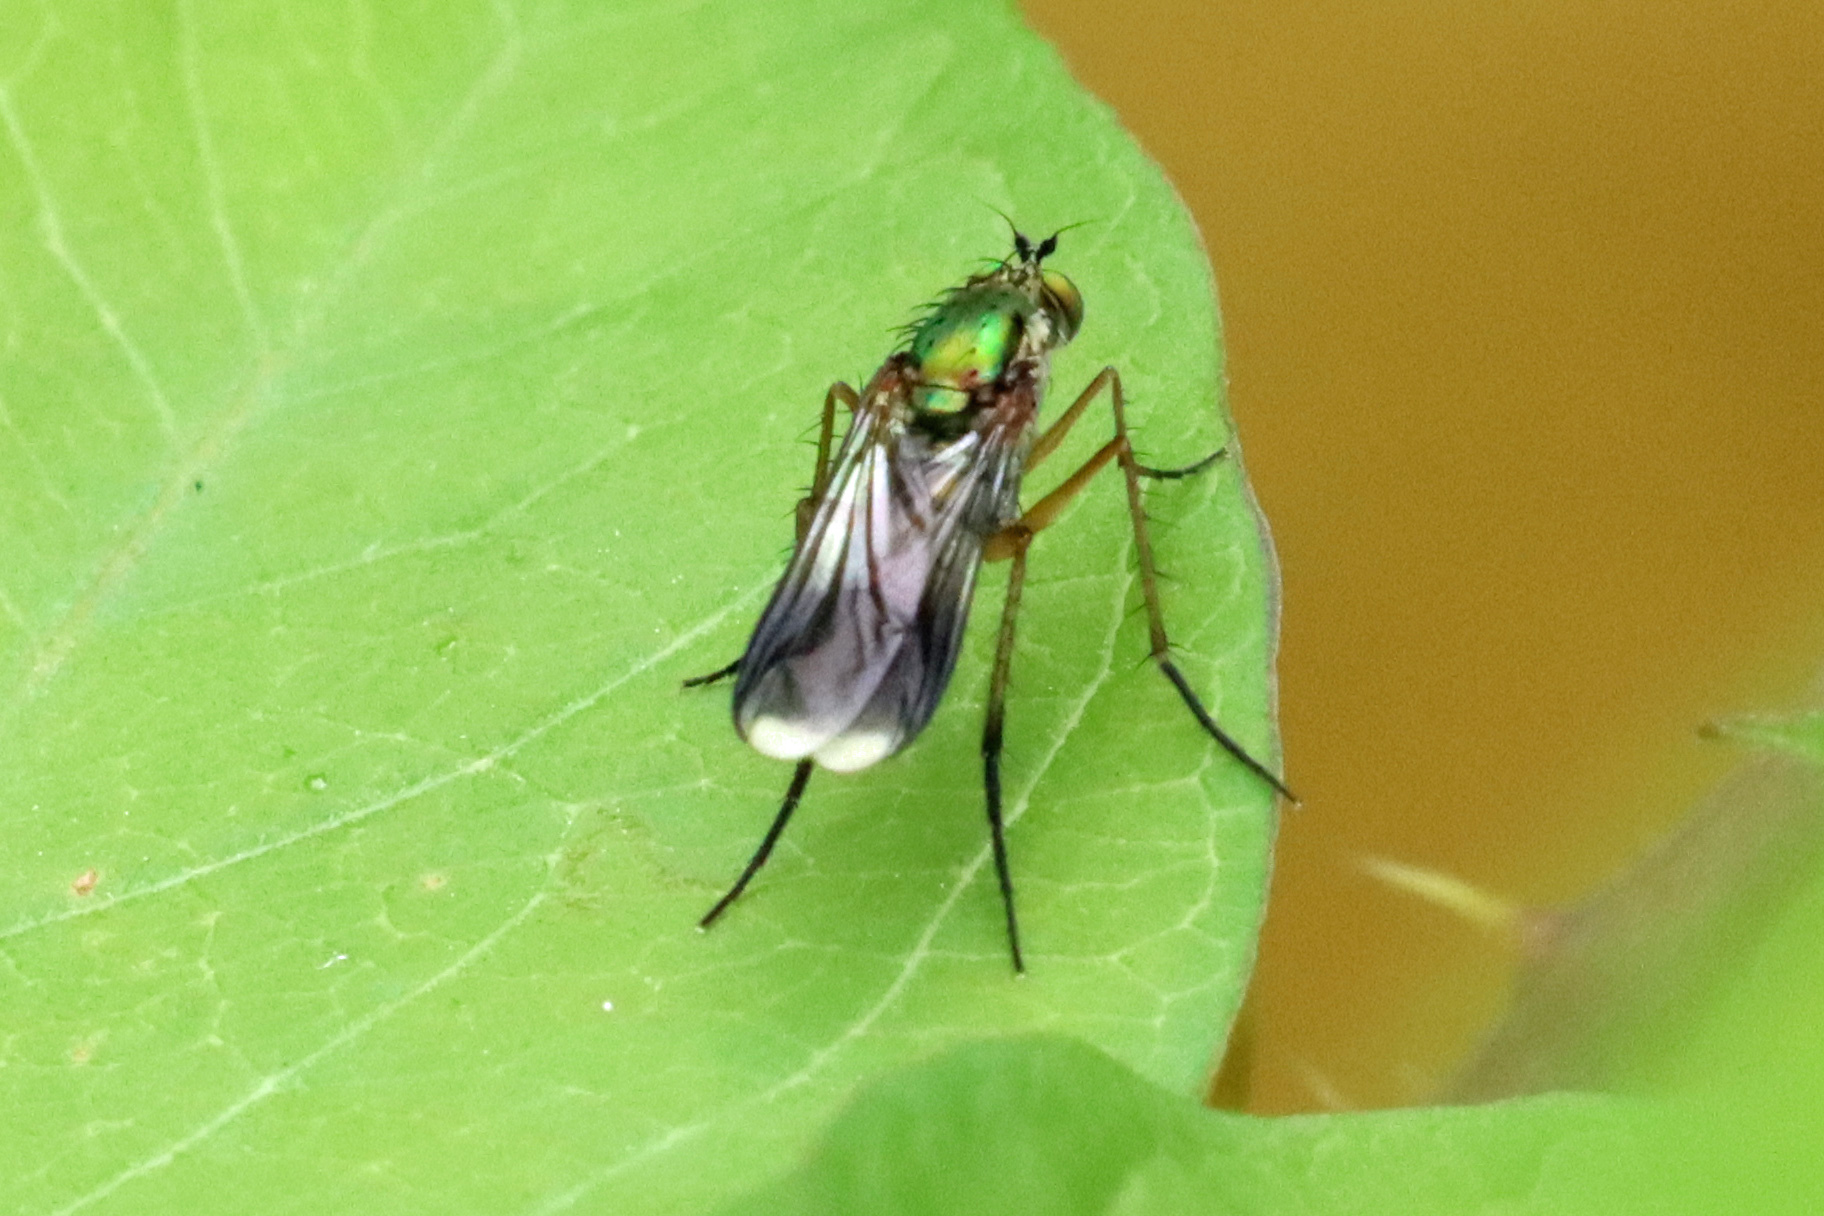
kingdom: Animalia
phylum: Arthropoda
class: Insecta
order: Diptera
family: Dolichopodidae
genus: Poecilobothrus
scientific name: Poecilobothrus nobilitatus
